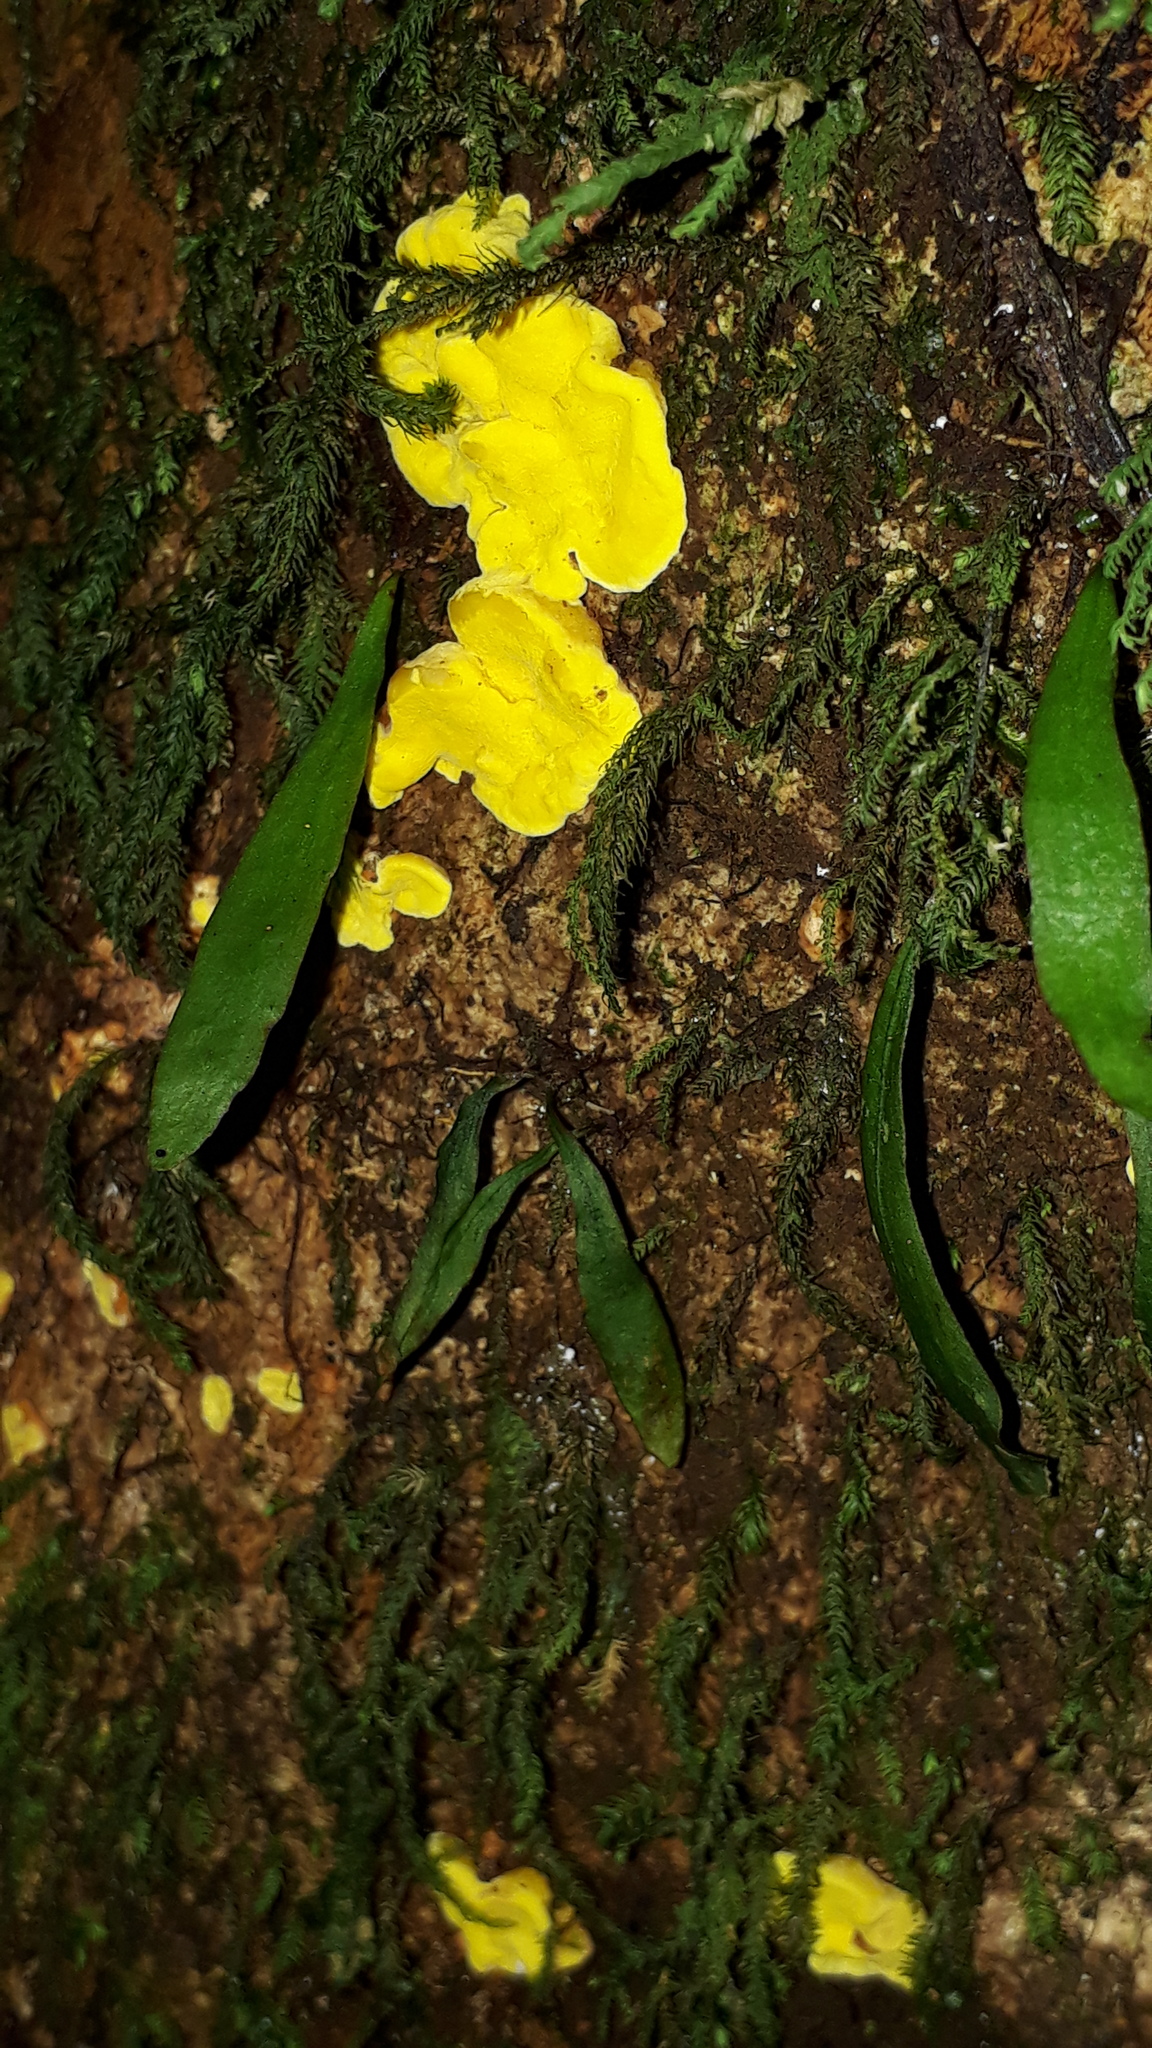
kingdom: Fungi
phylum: Basidiomycota
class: Agaricomycetes
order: Polyporales
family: Steccherinaceae
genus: Flaviporus
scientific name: Flaviporus brownii
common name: Yellowpored bracket
